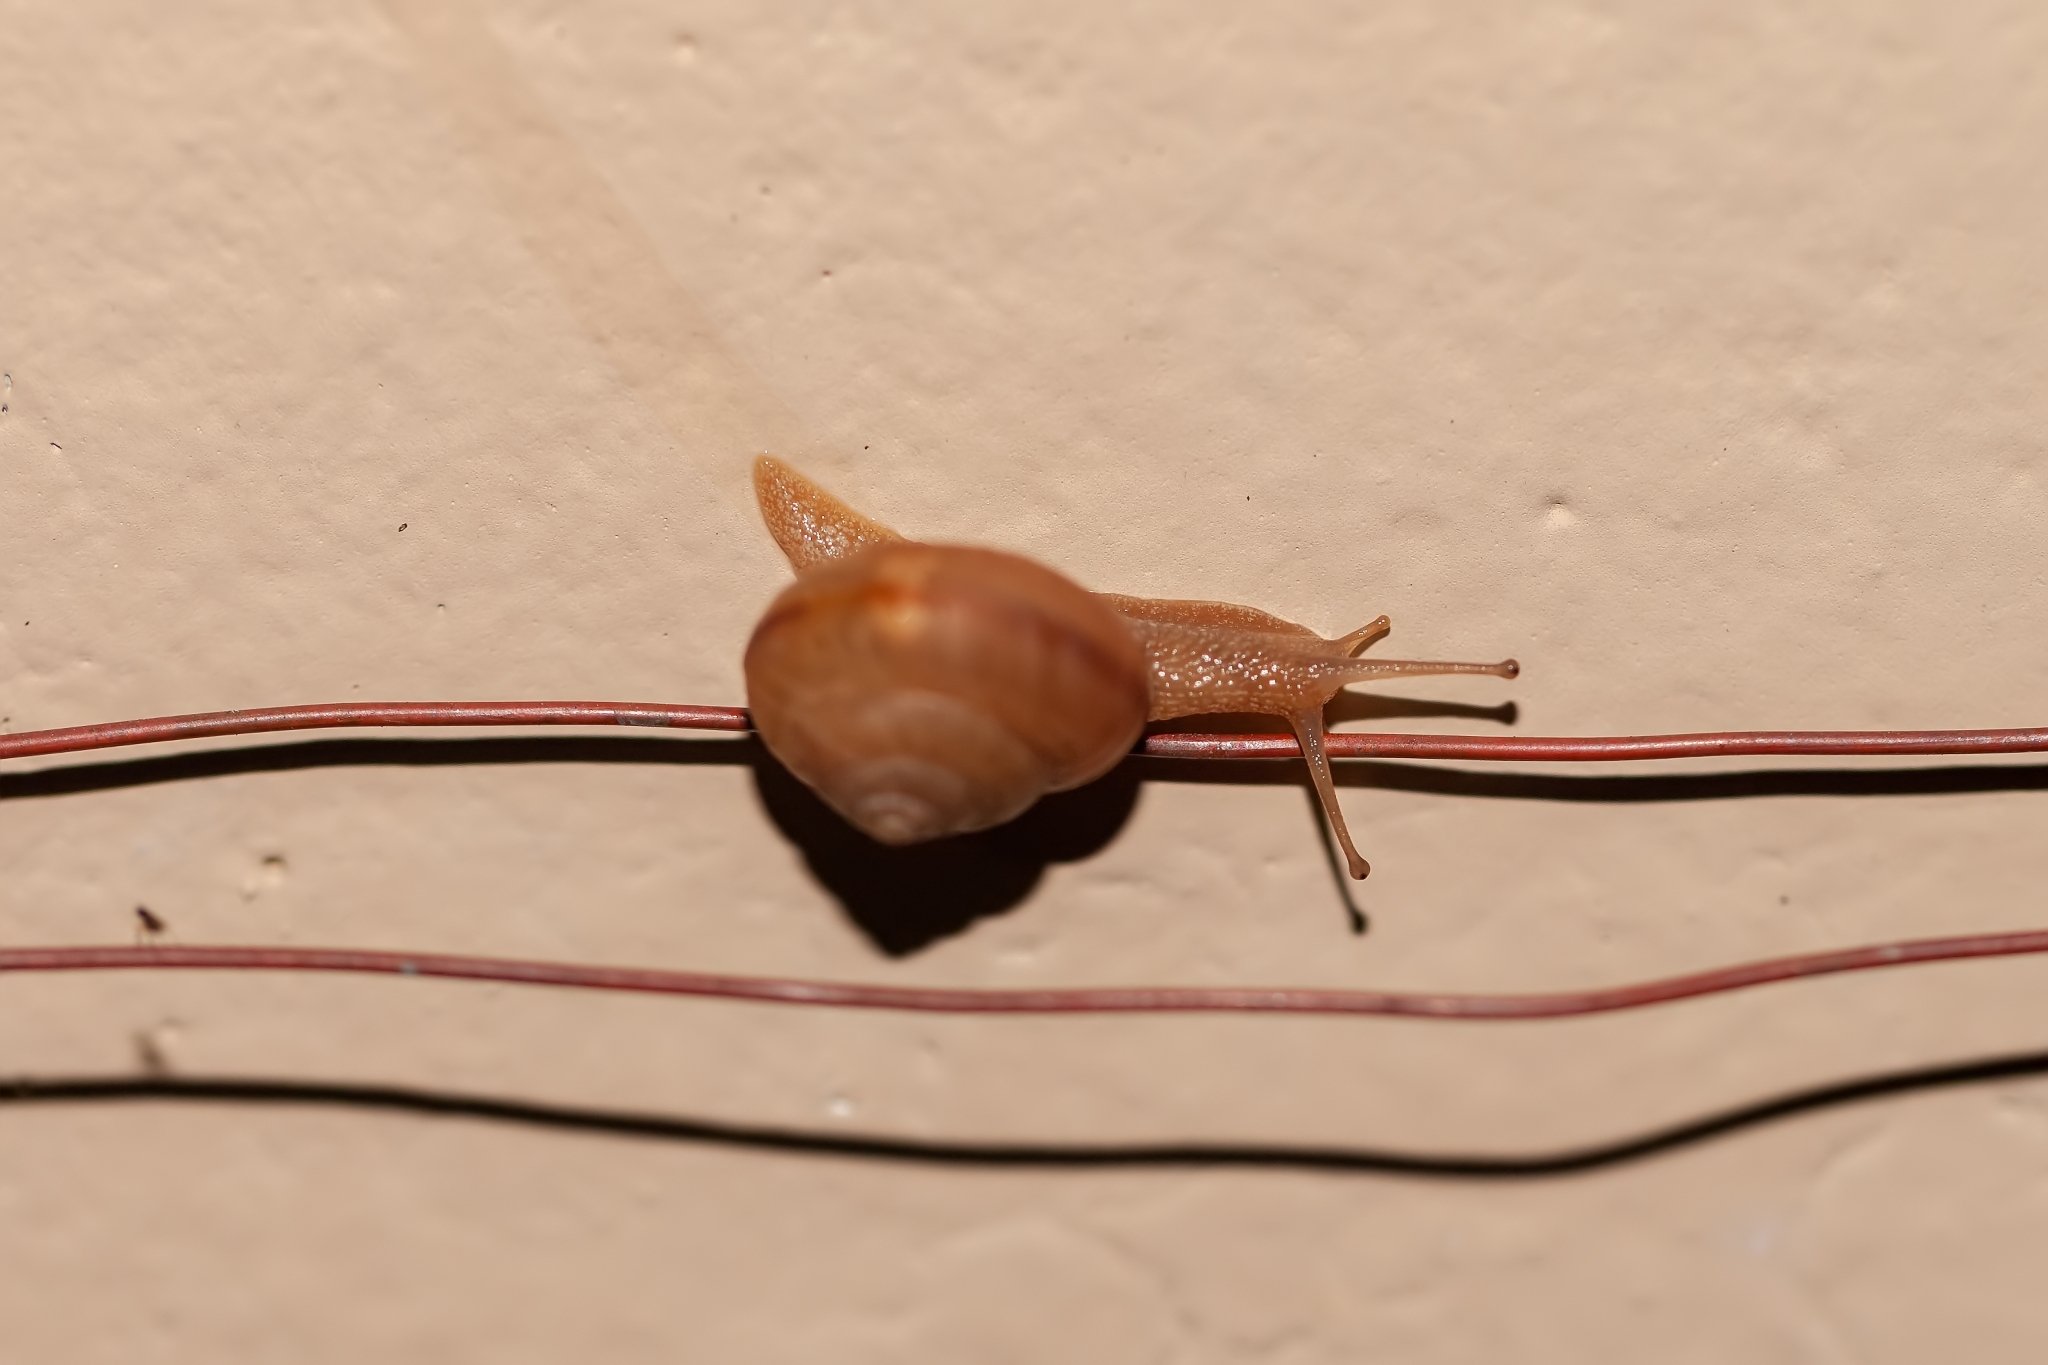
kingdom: Animalia
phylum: Mollusca
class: Gastropoda
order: Stylommatophora
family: Camaenidae
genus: Bradybaena
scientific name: Bradybaena similaris
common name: Asian trampsnail
